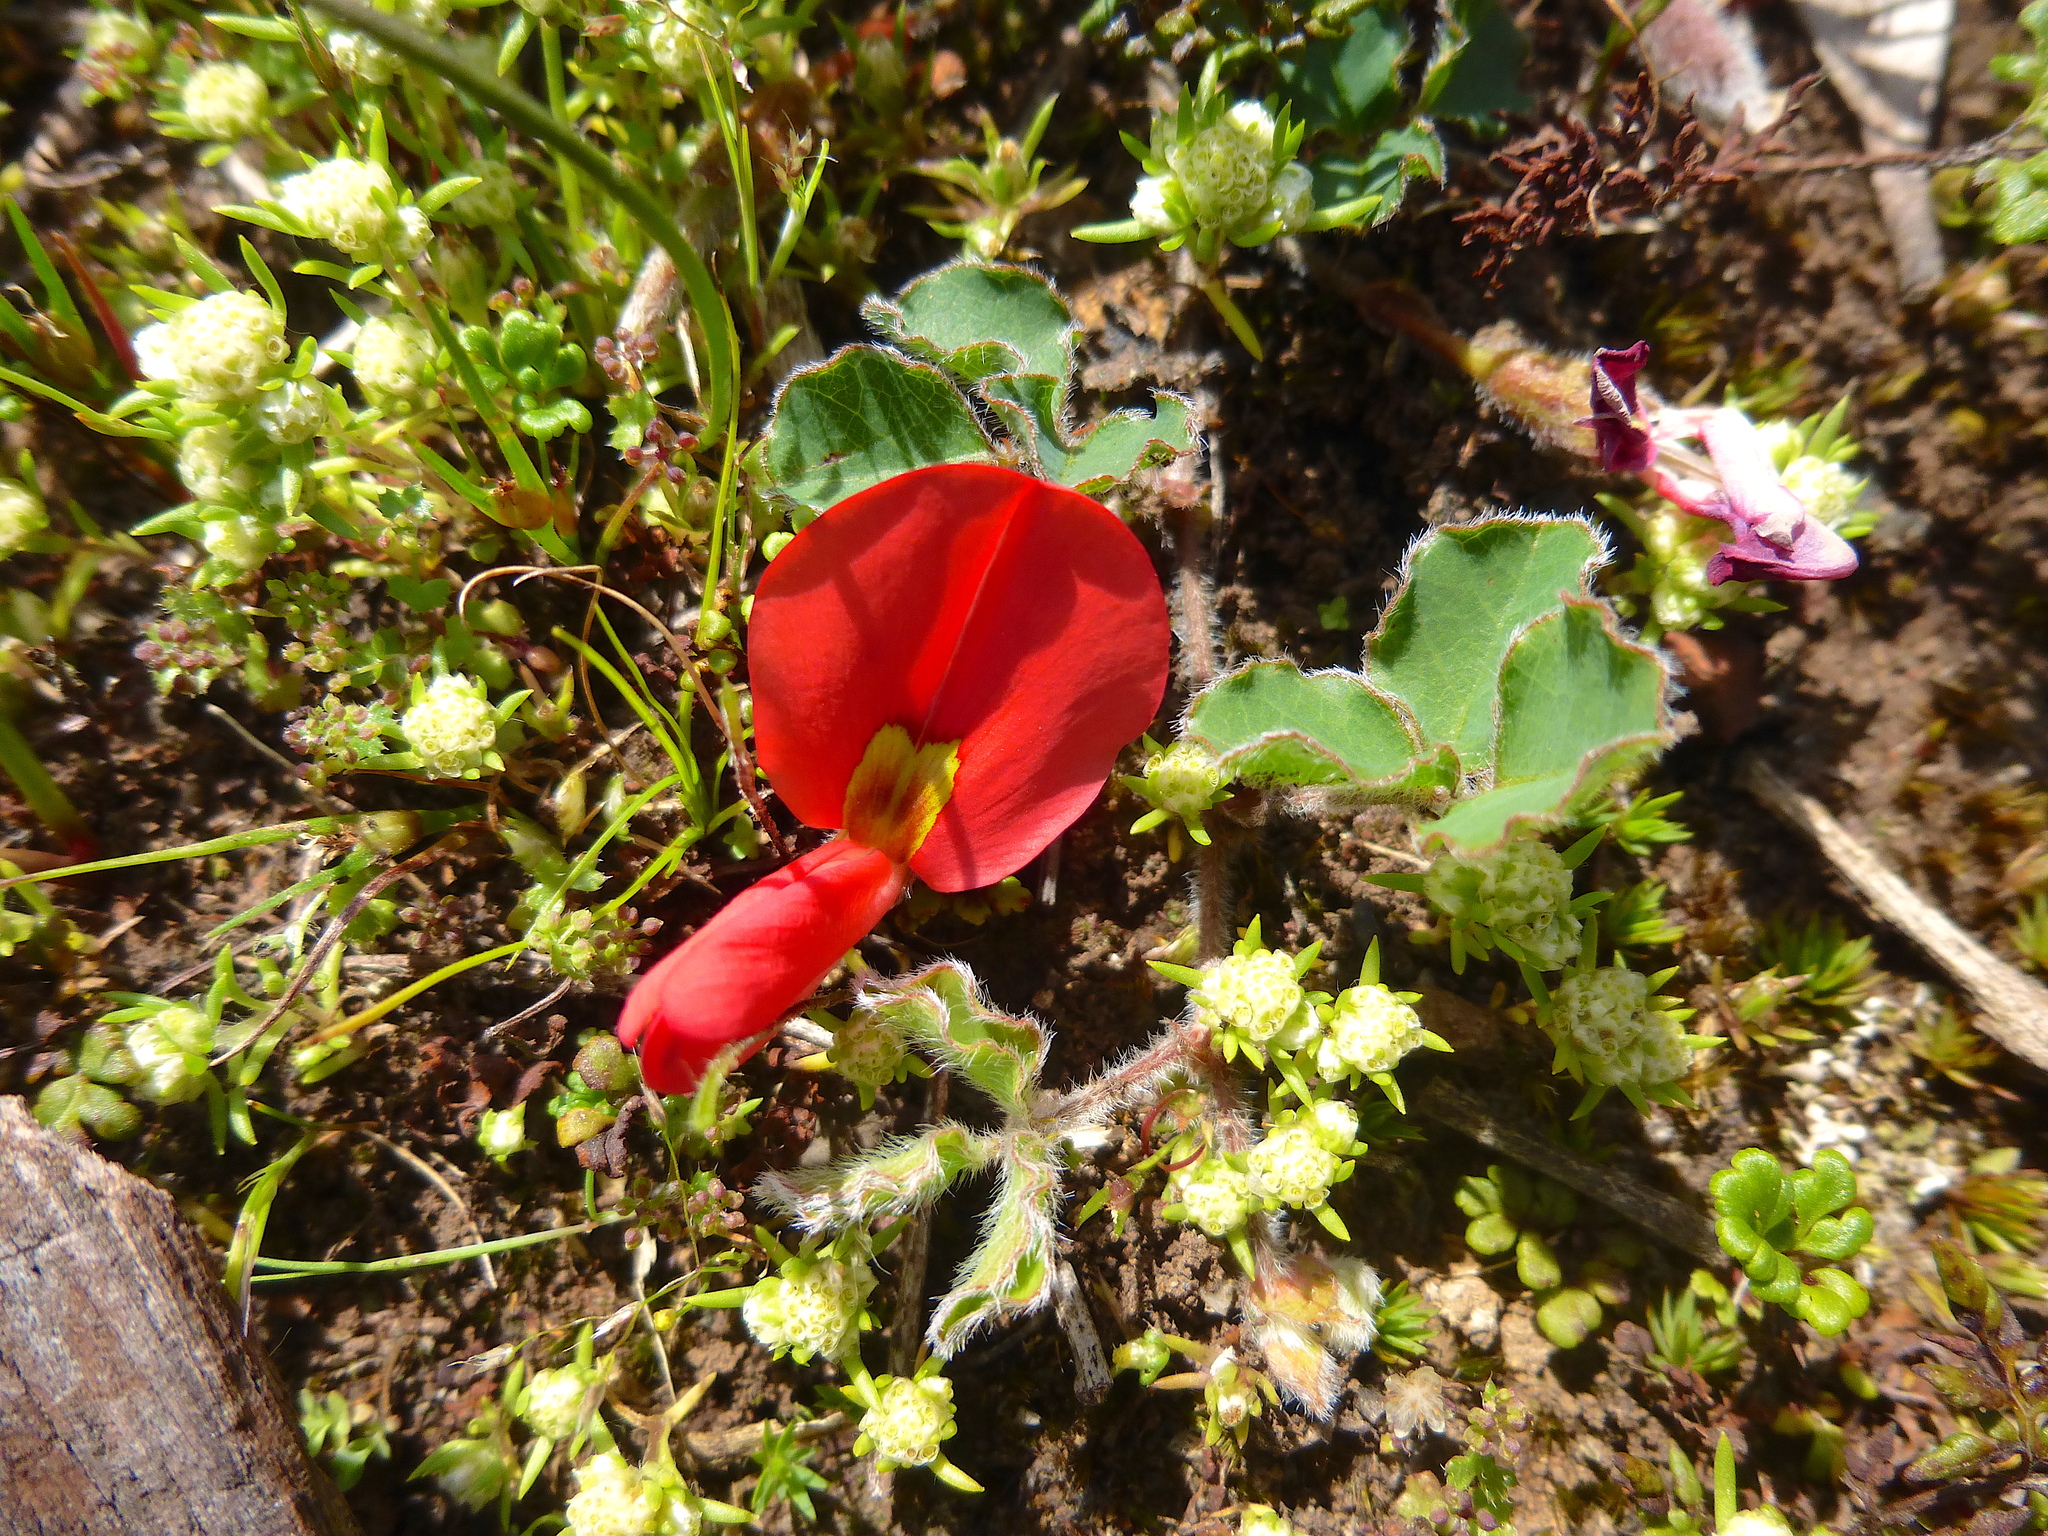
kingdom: Plantae
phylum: Tracheophyta
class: Magnoliopsida
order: Fabales
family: Fabaceae
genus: Kennedia
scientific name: Kennedia prostrata
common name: Running-postman
